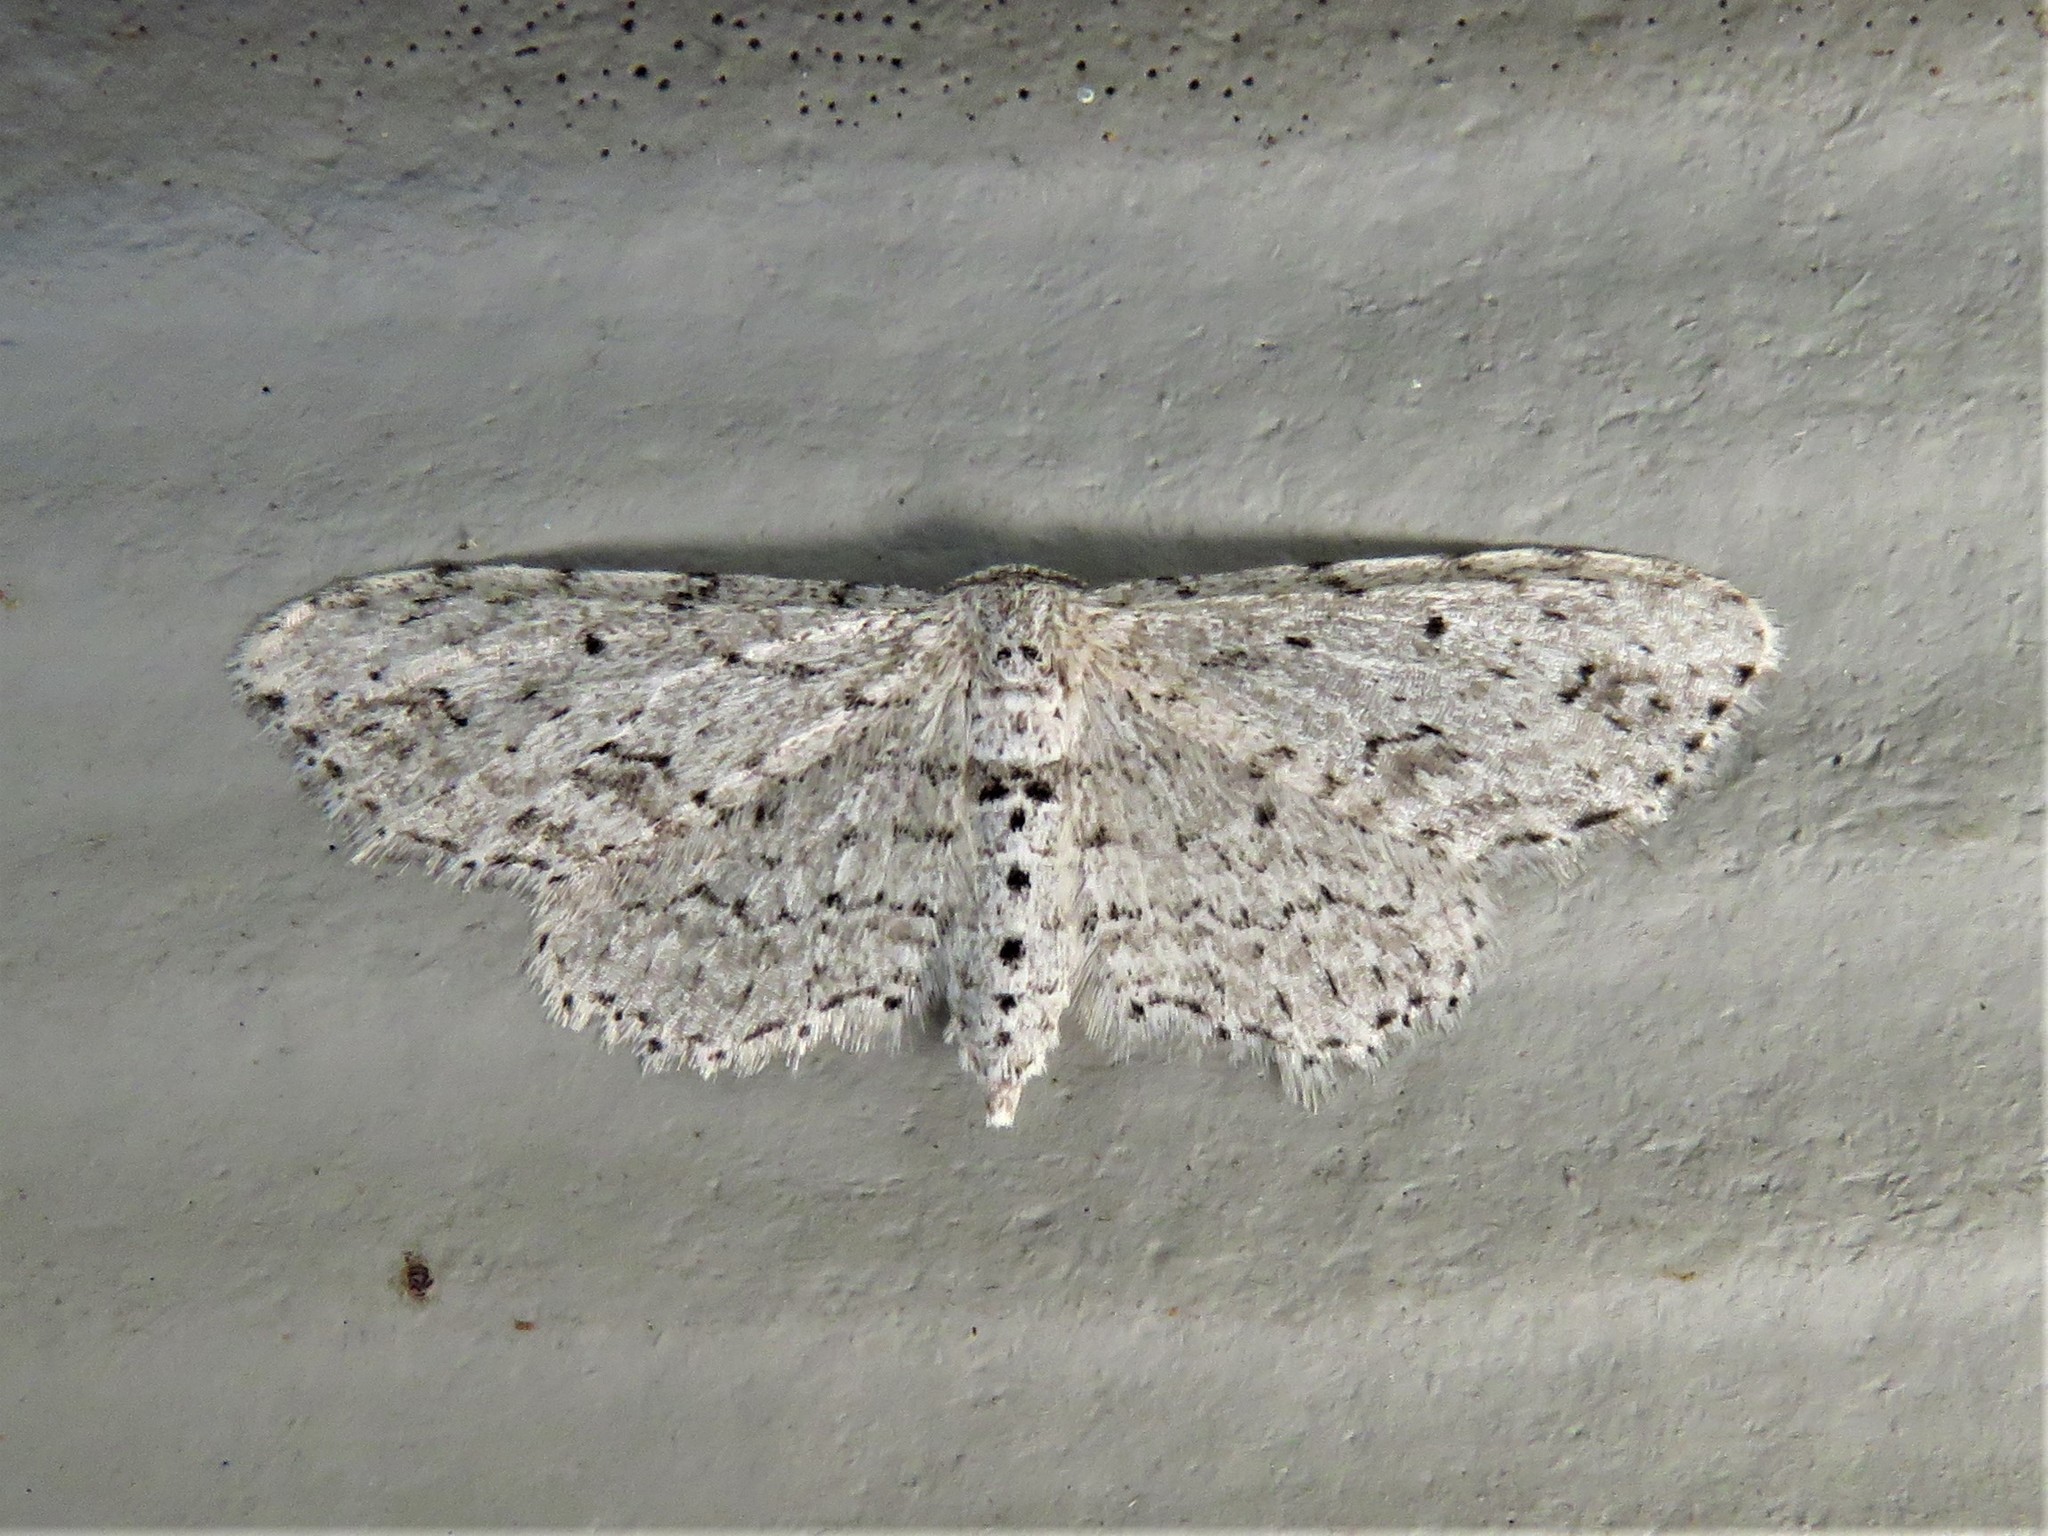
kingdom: Animalia
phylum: Arthropoda
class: Insecta
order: Lepidoptera
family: Geometridae
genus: Pimaphera
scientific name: Pimaphera sparsaria
